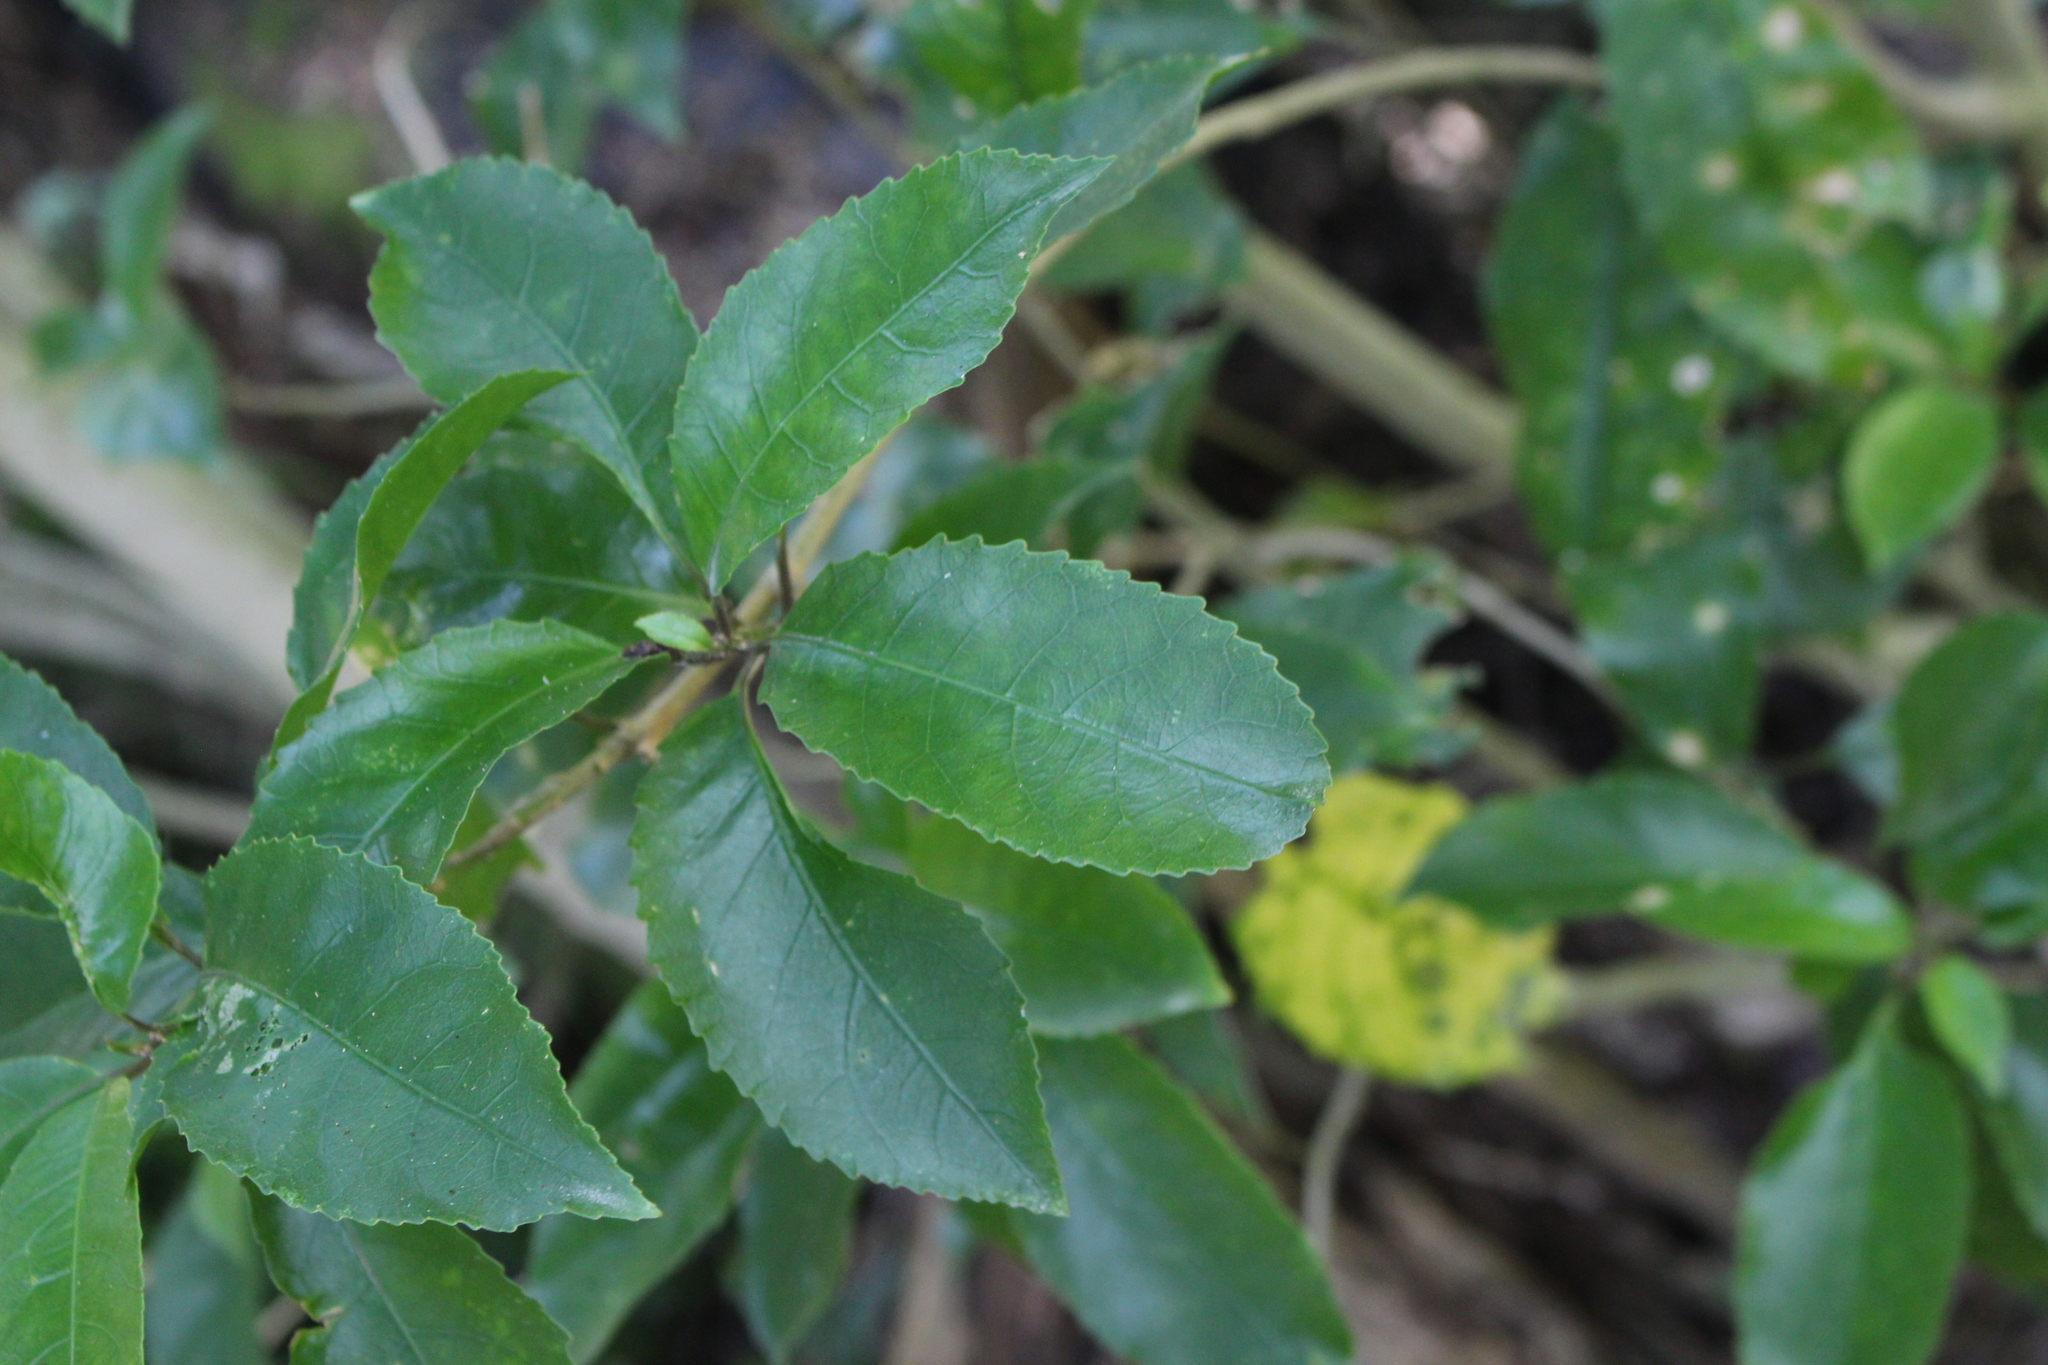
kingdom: Plantae
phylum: Tracheophyta
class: Magnoliopsida
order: Malpighiales
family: Violaceae
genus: Melicytus
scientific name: Melicytus ramiflorus
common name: Mahoe
